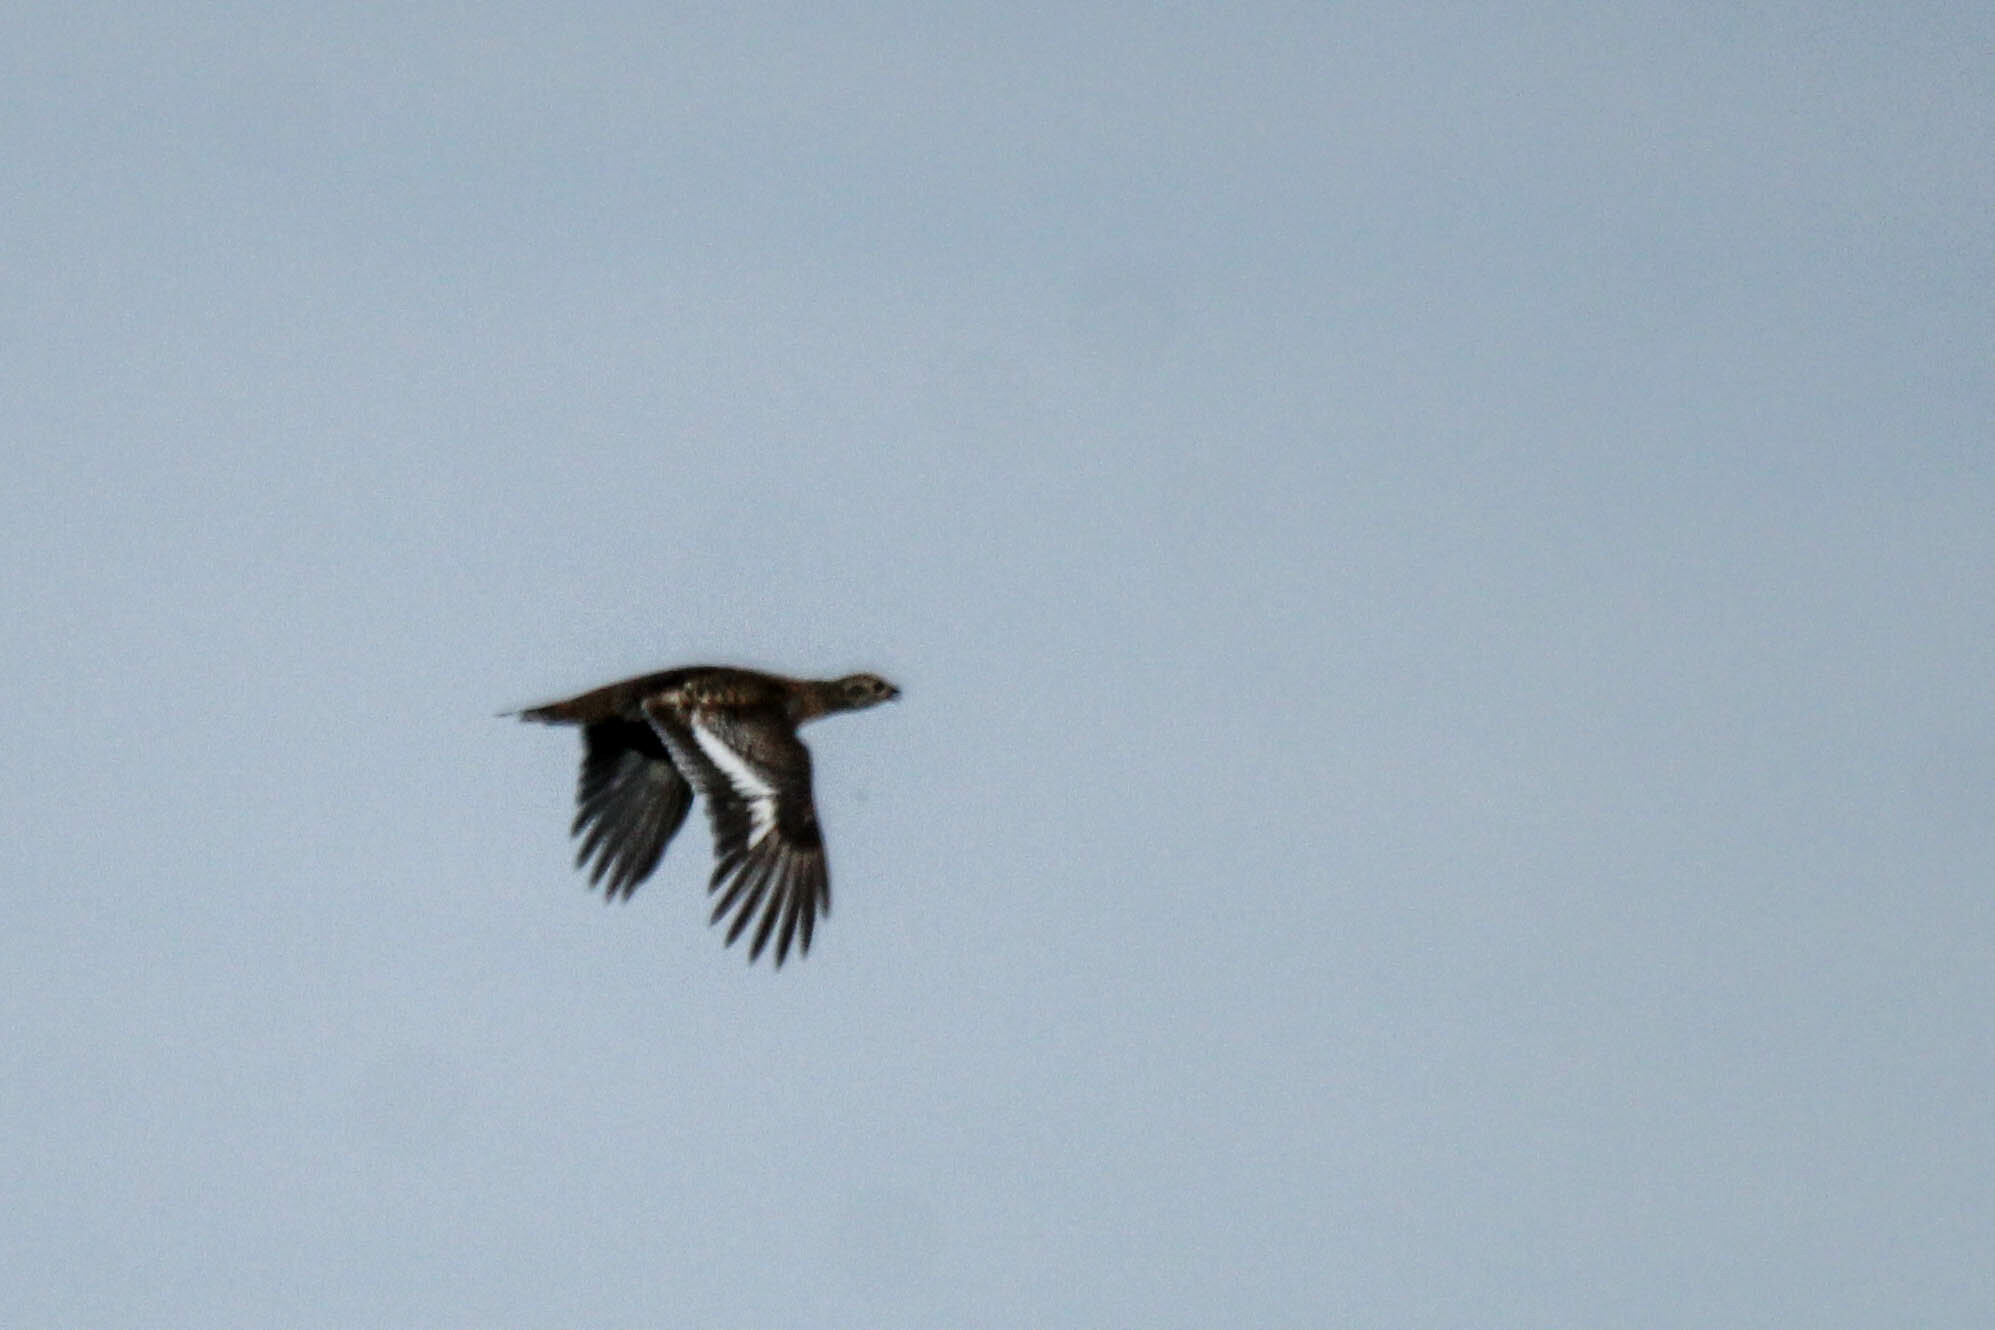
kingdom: Animalia
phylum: Chordata
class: Aves
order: Galliformes
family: Phasianidae
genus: Lyrurus
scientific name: Lyrurus tetrix
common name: Black grouse
